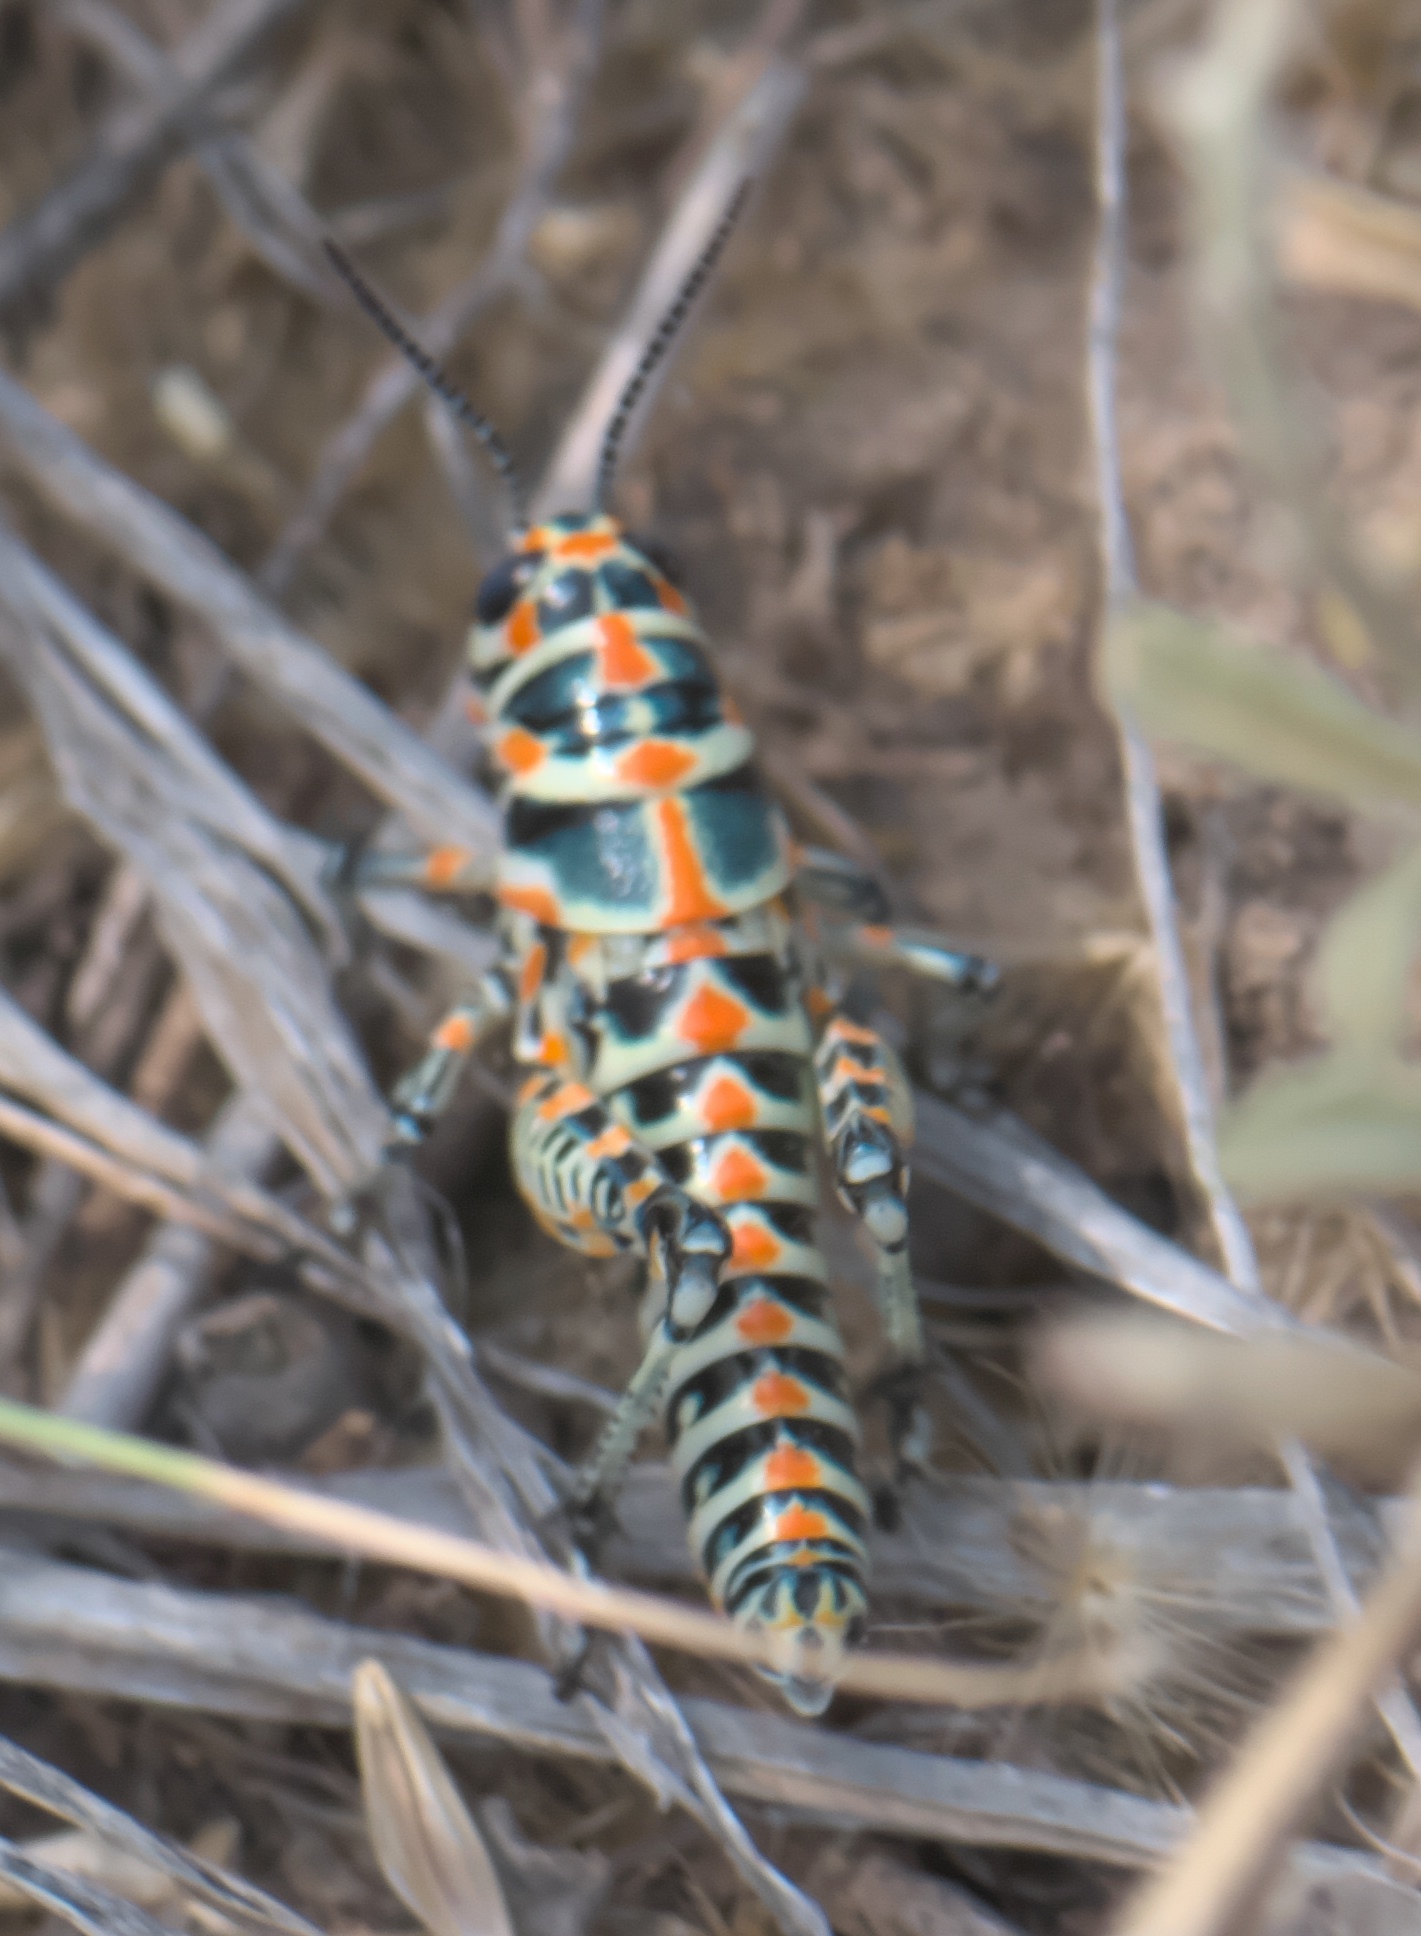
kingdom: Animalia
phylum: Arthropoda
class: Insecta
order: Orthoptera
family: Acrididae
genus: Dactylotum
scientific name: Dactylotum bicolor
